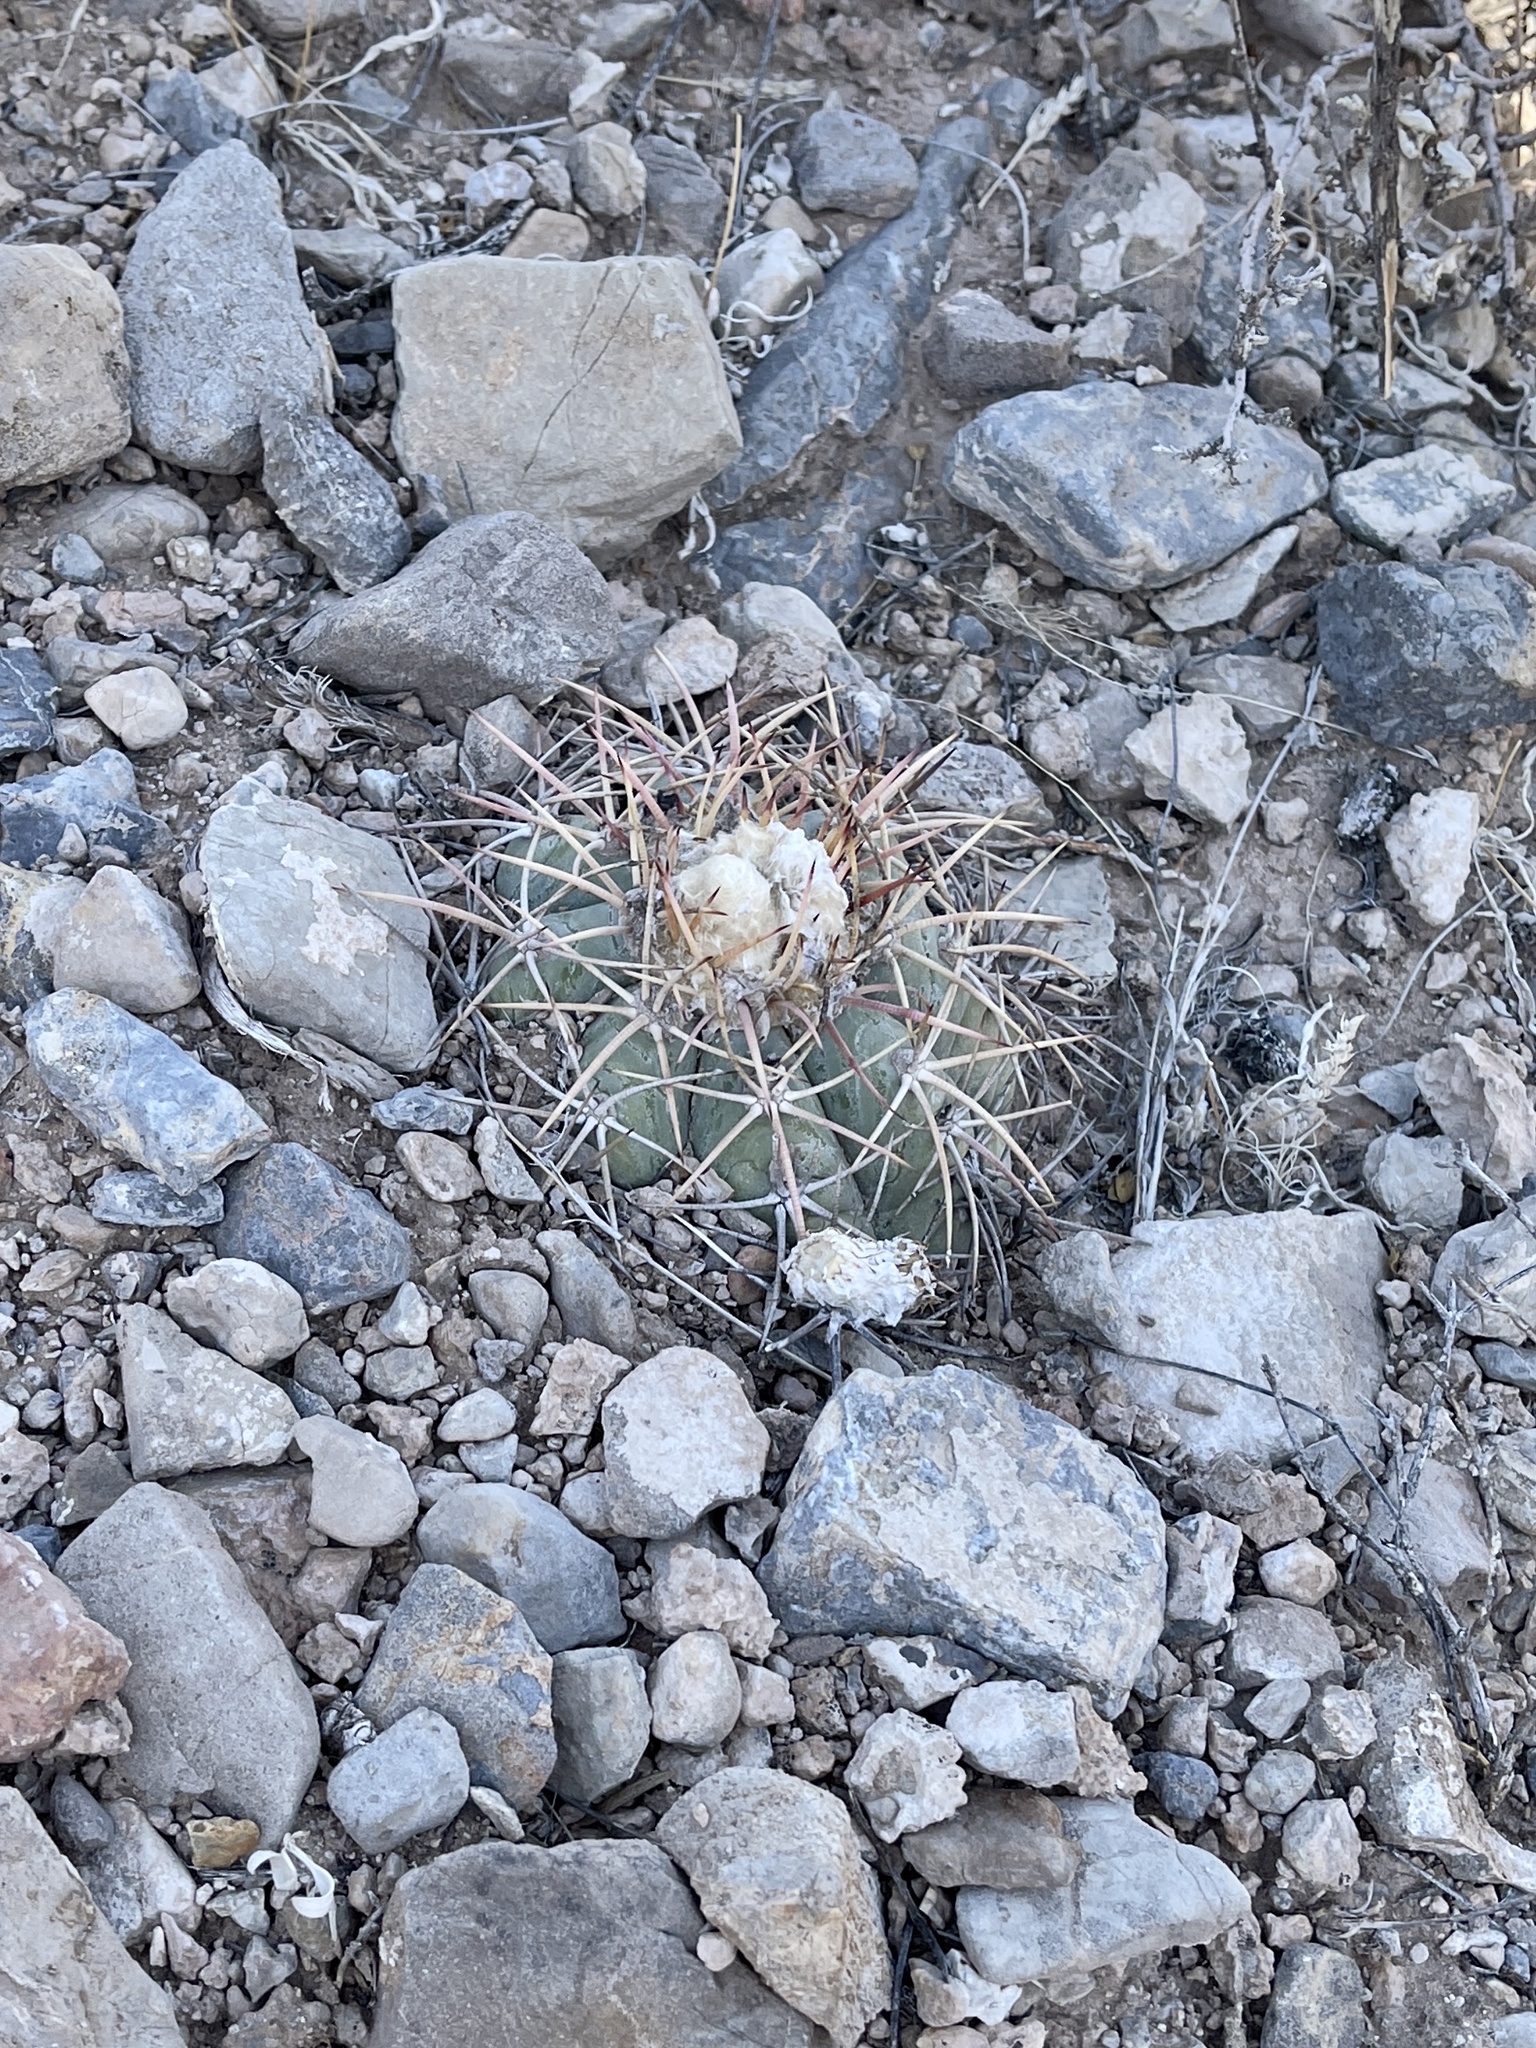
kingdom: Plantae
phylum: Tracheophyta
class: Magnoliopsida
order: Caryophyllales
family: Cactaceae
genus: Echinocactus
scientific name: Echinocactus horizonthalonius
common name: Devilshead
